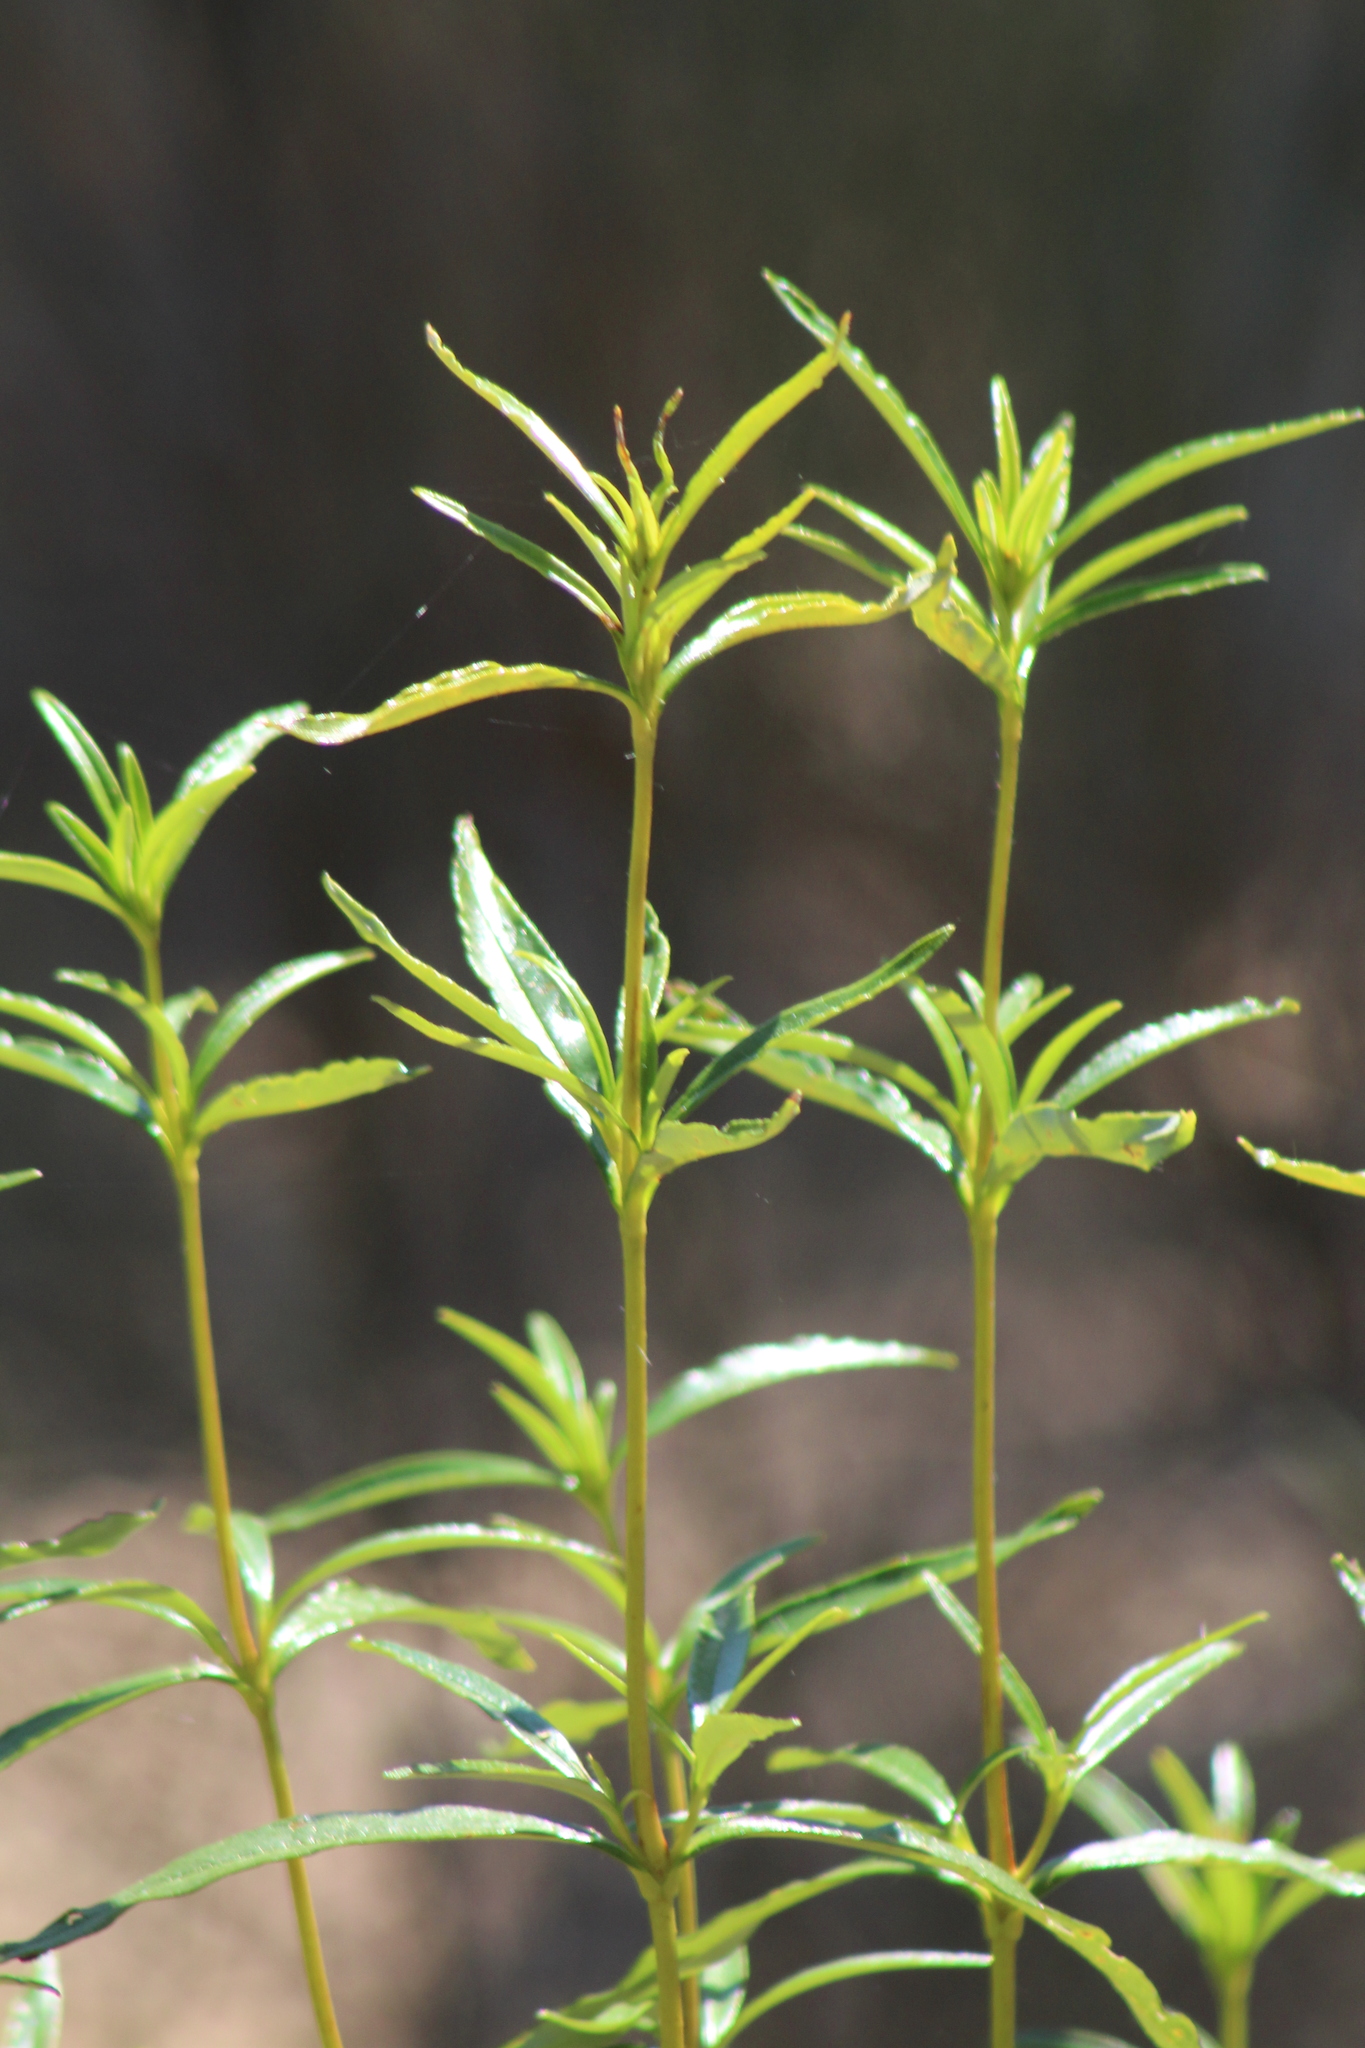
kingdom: Plantae
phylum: Tracheophyta
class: Magnoliopsida
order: Malvales
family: Cistaceae
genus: Cistus
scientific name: Cistus ladanifer
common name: Common gum cistus
